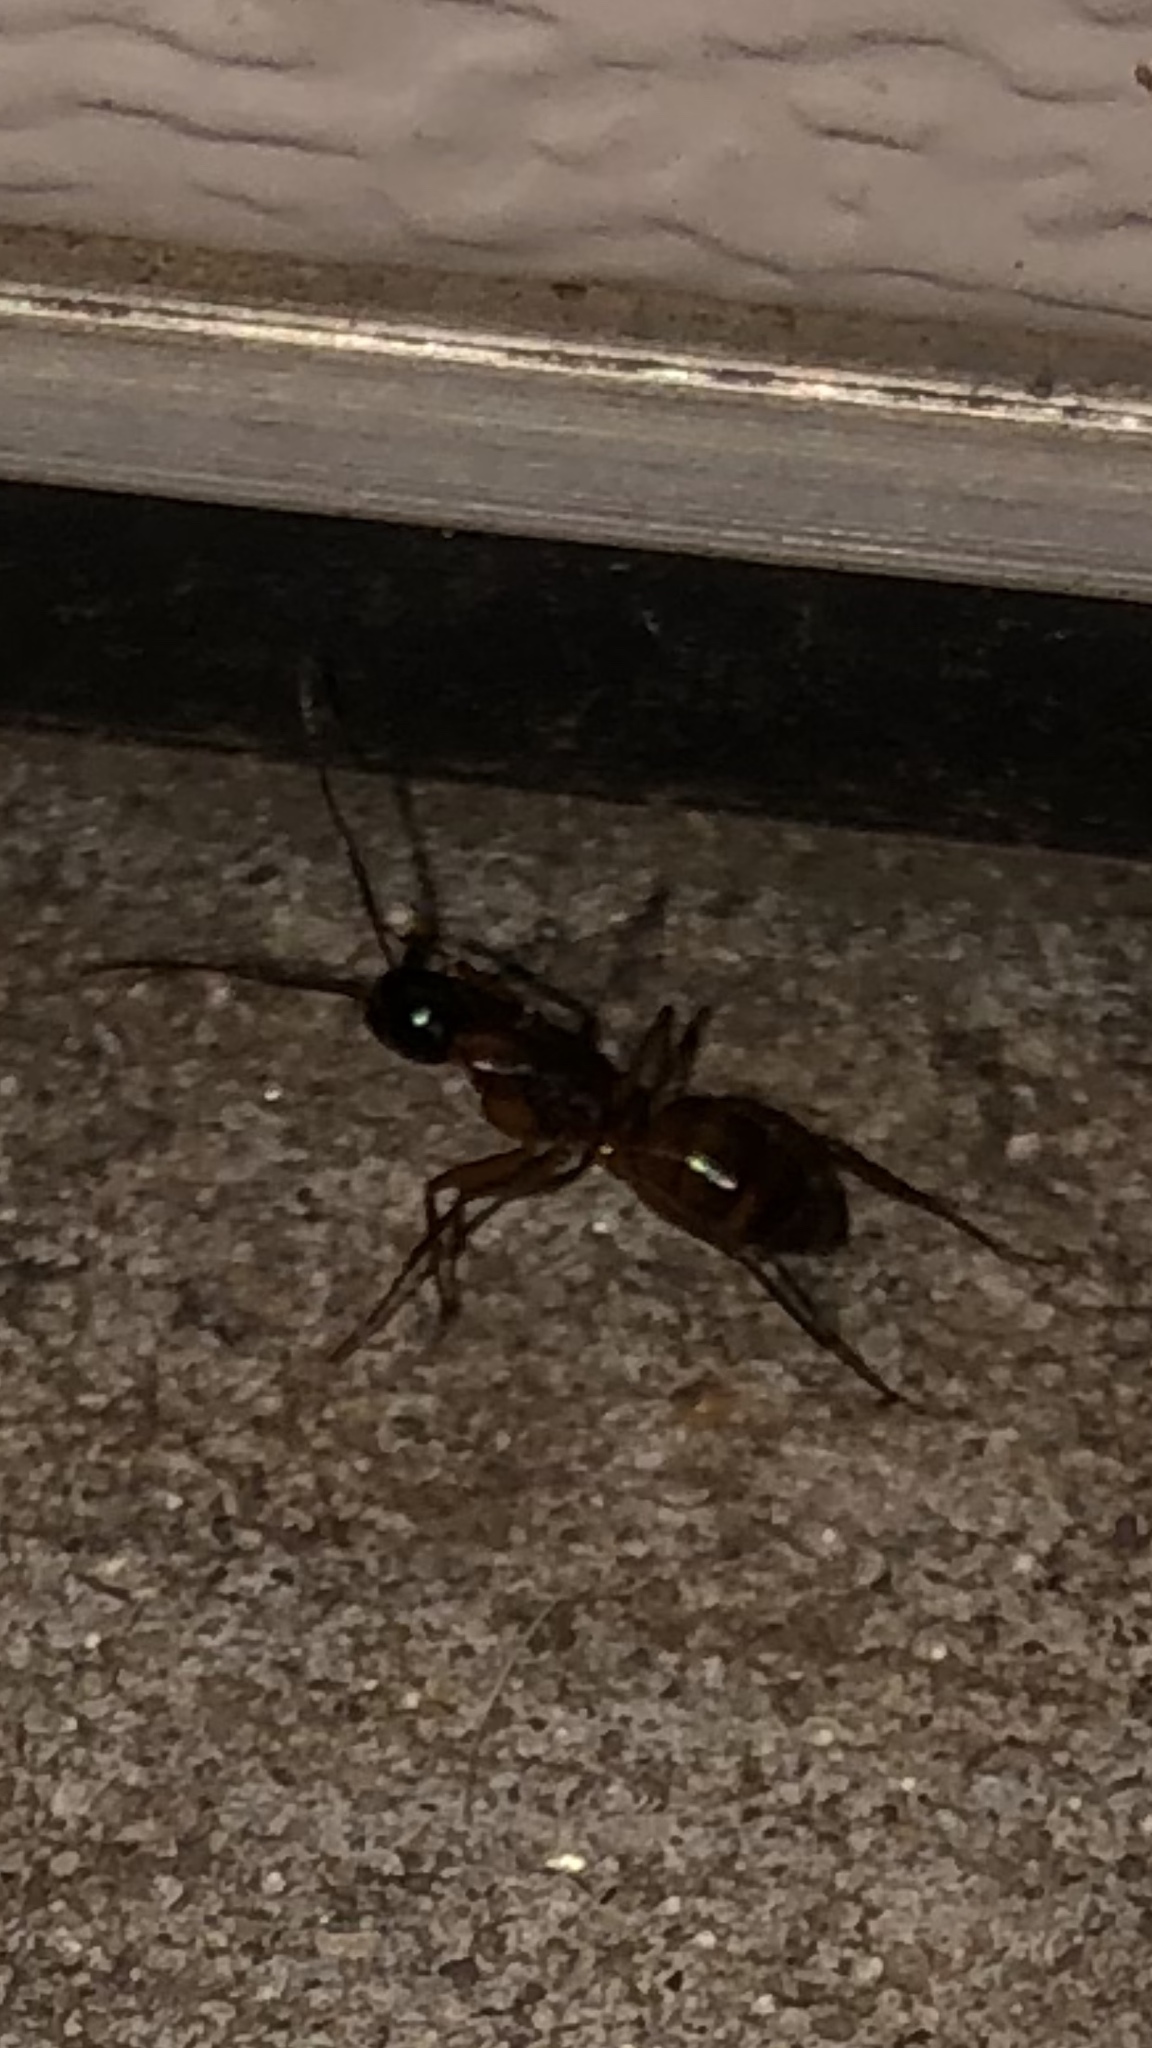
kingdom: Animalia
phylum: Arthropoda
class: Insecta
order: Hymenoptera
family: Formicidae
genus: Camponotus
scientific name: Camponotus americanus
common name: American carpenter ant
